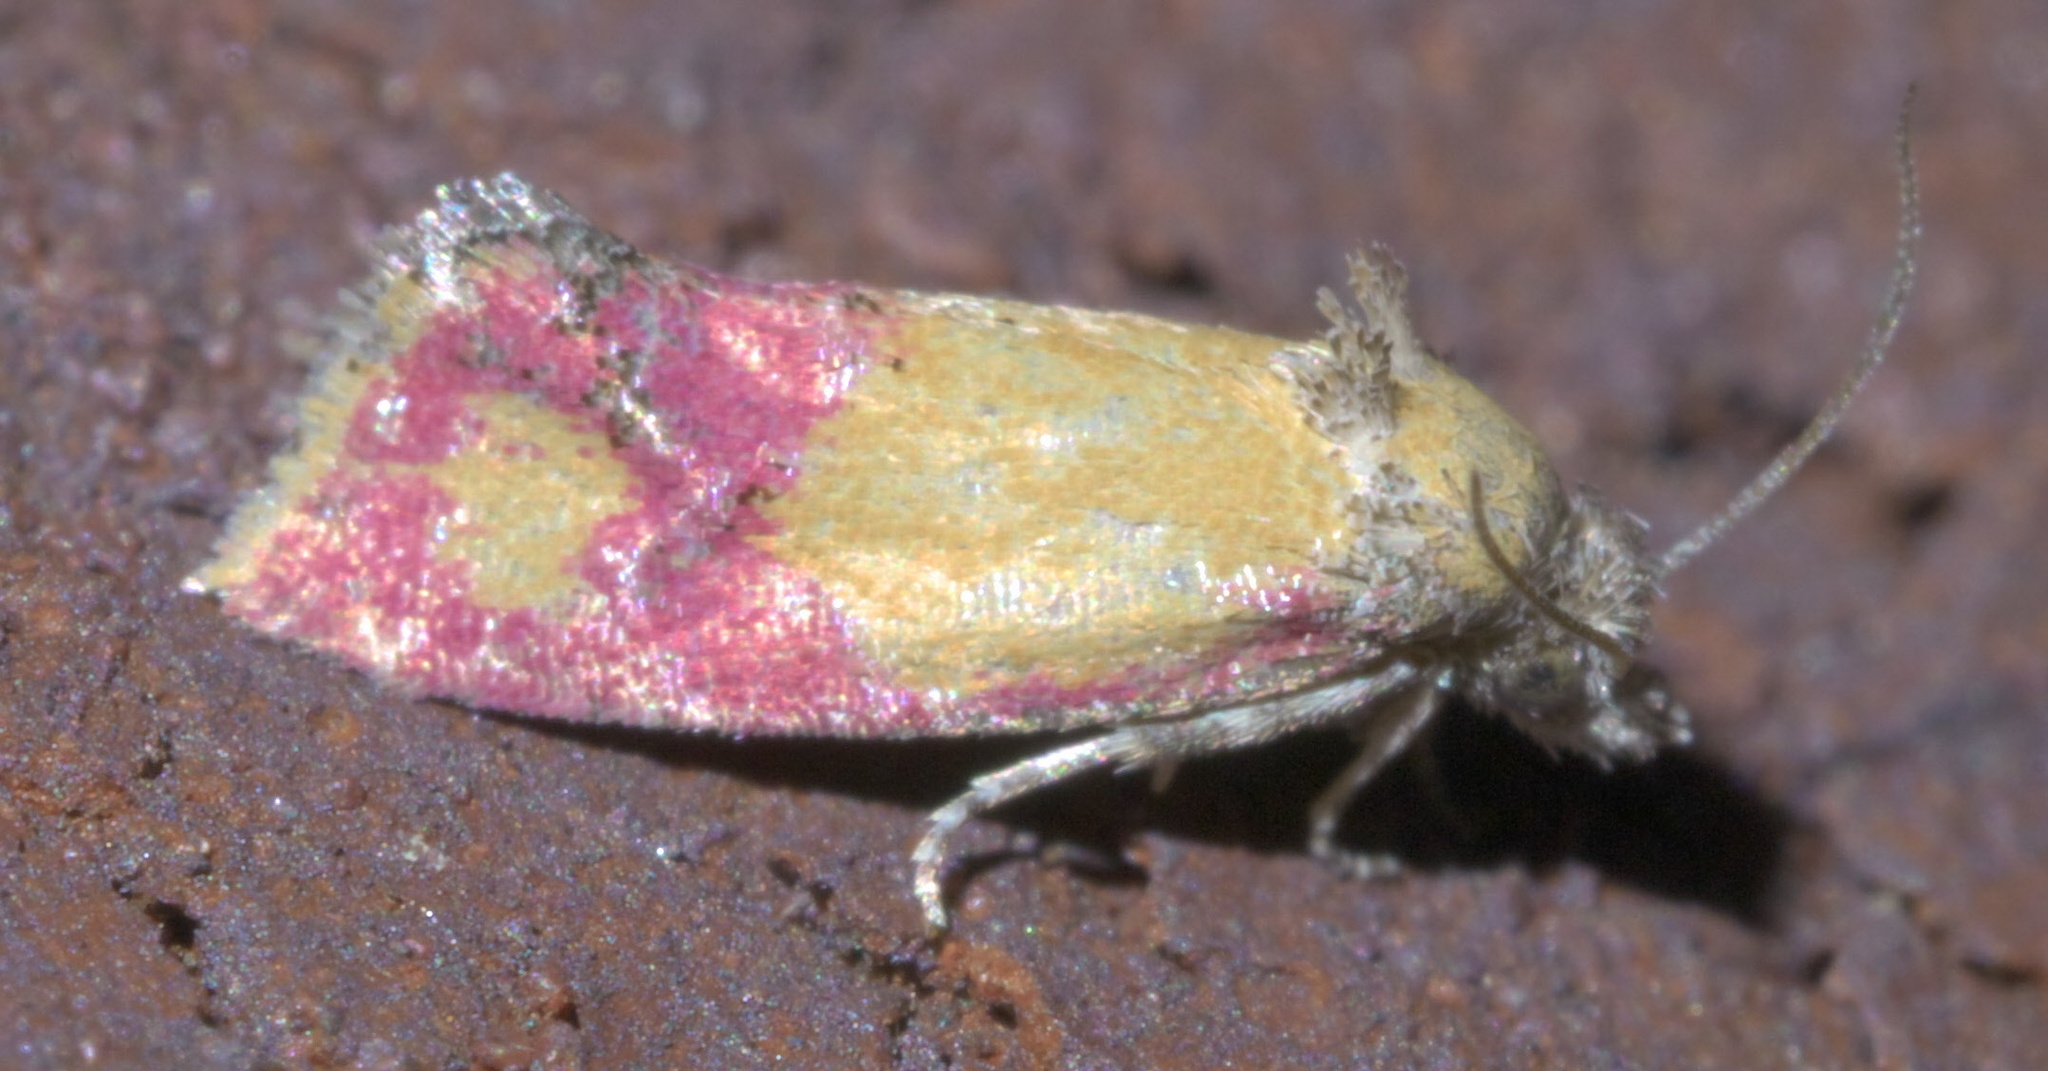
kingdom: Animalia
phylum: Arthropoda
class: Insecta
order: Lepidoptera
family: Tortricidae
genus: Conchylis
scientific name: Conchylis oenotherana
